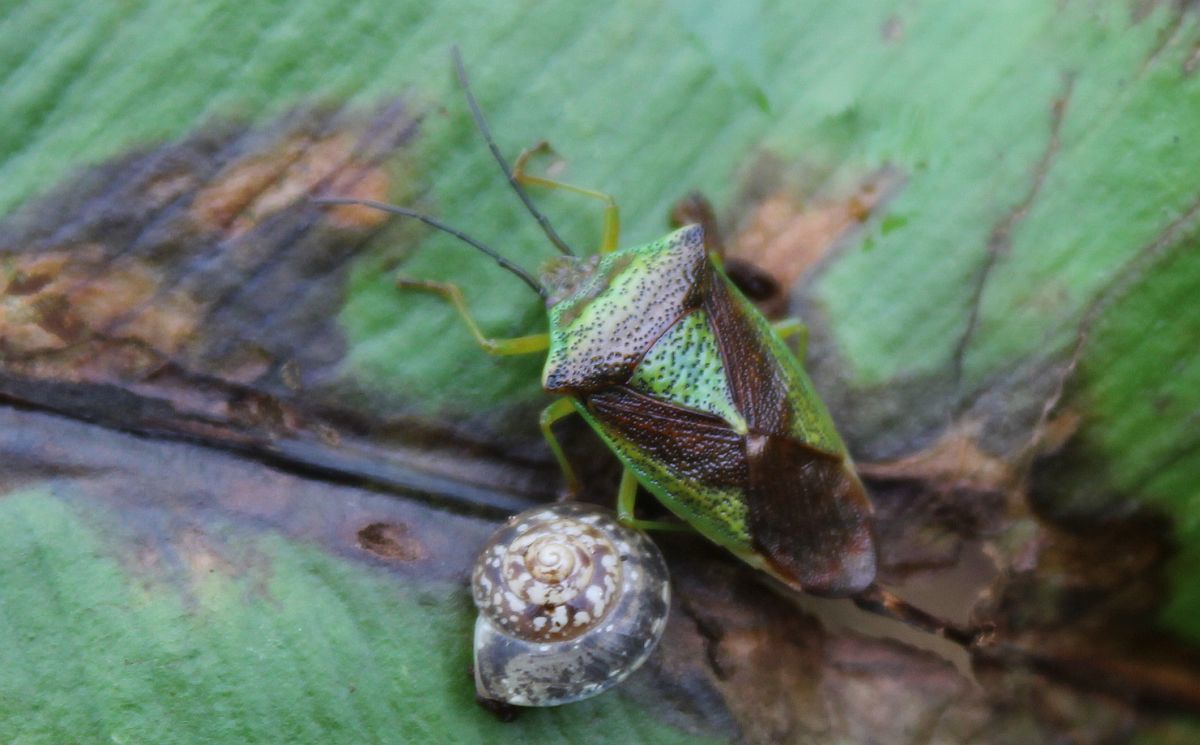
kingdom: Animalia
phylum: Arthropoda
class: Insecta
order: Hemiptera
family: Acanthosomatidae
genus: Acanthosoma
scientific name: Acanthosoma haemorrhoidale
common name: Hawthorn shieldbug
